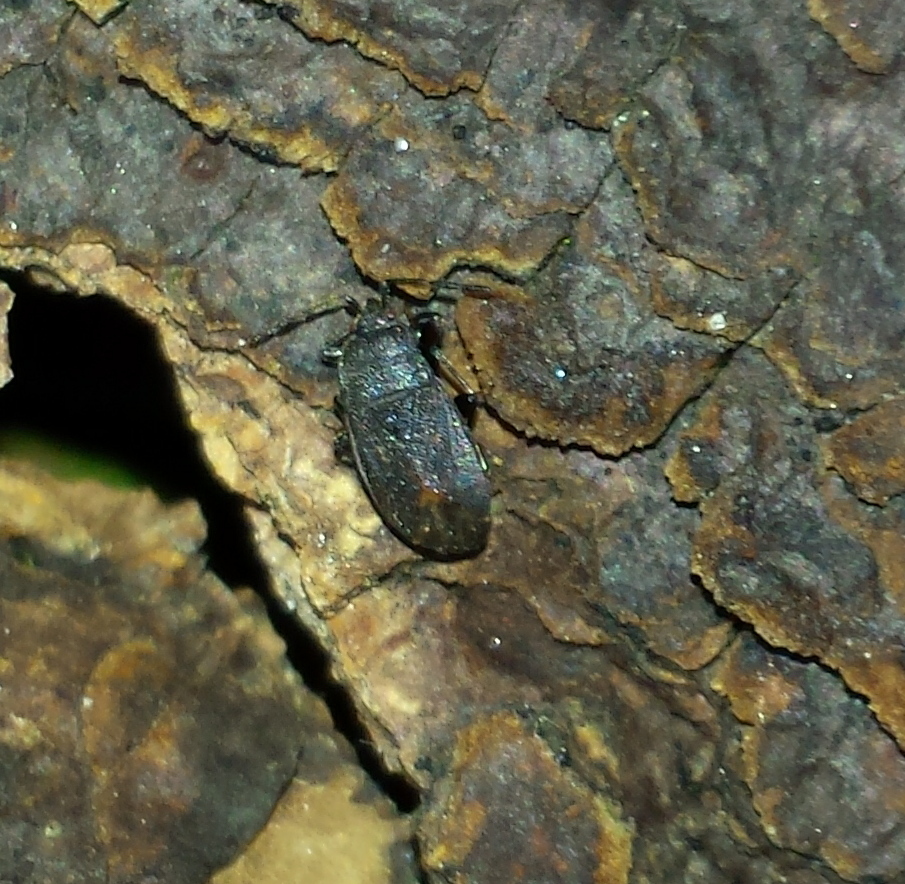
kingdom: Animalia
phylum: Arthropoda
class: Insecta
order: Hemiptera
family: Rhyparochromidae
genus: Aphanus
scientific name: Aphanus rolandri
